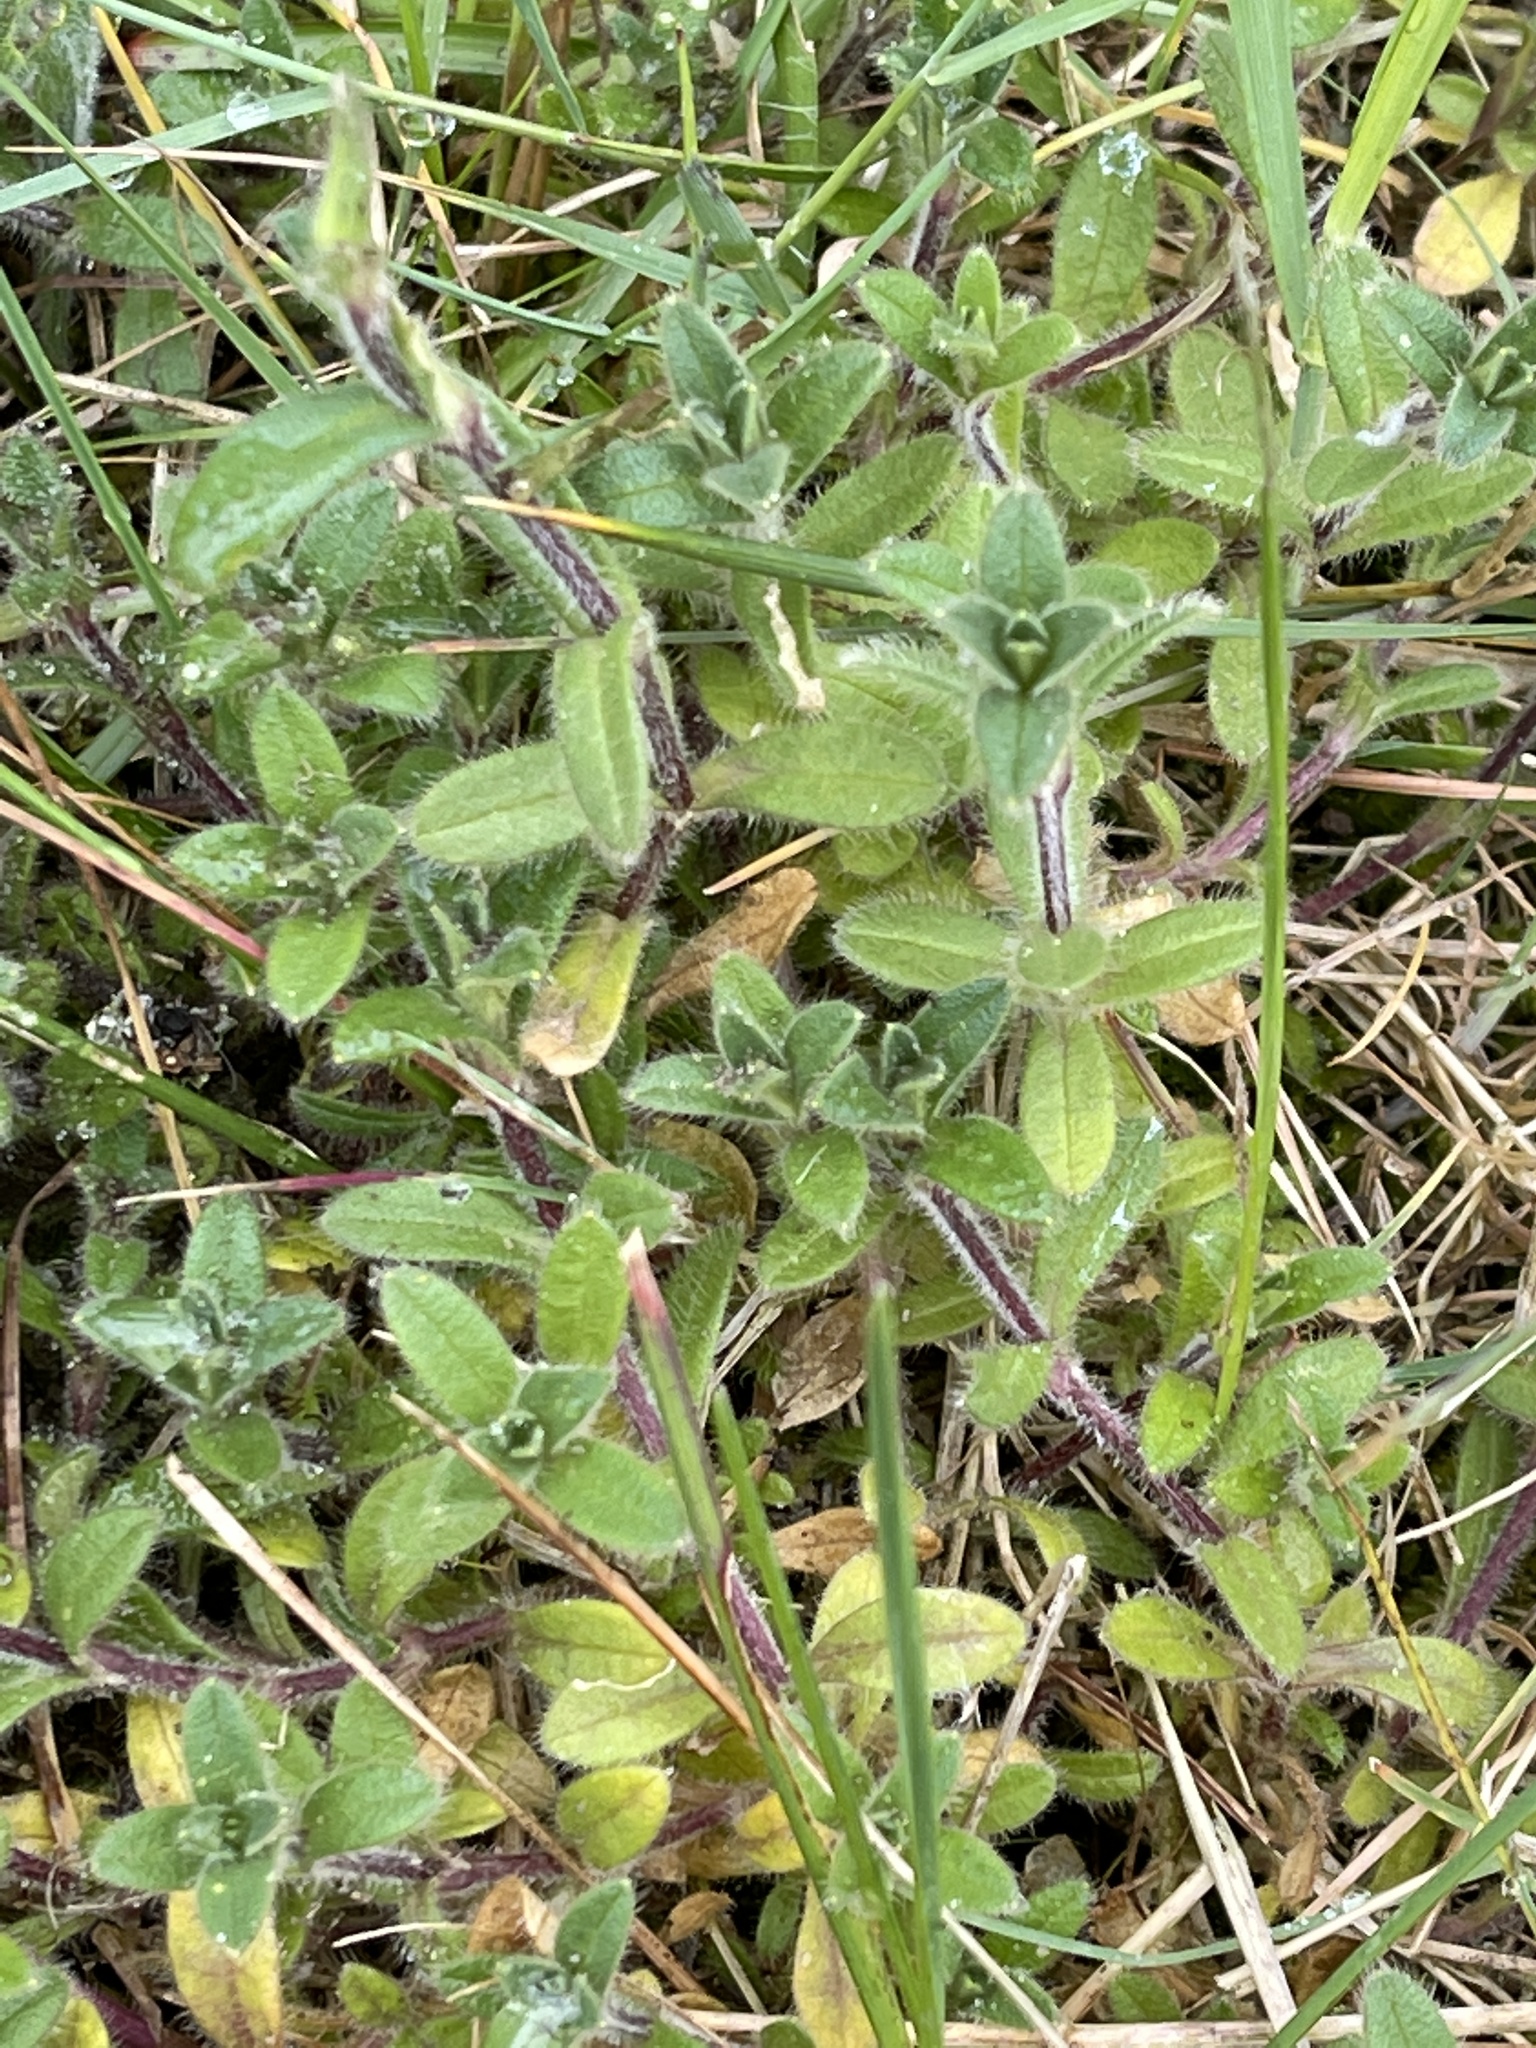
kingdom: Plantae
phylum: Tracheophyta
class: Magnoliopsida
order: Caryophyllales
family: Caryophyllaceae
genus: Cerastium
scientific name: Cerastium fontanum
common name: Common mouse-ear
